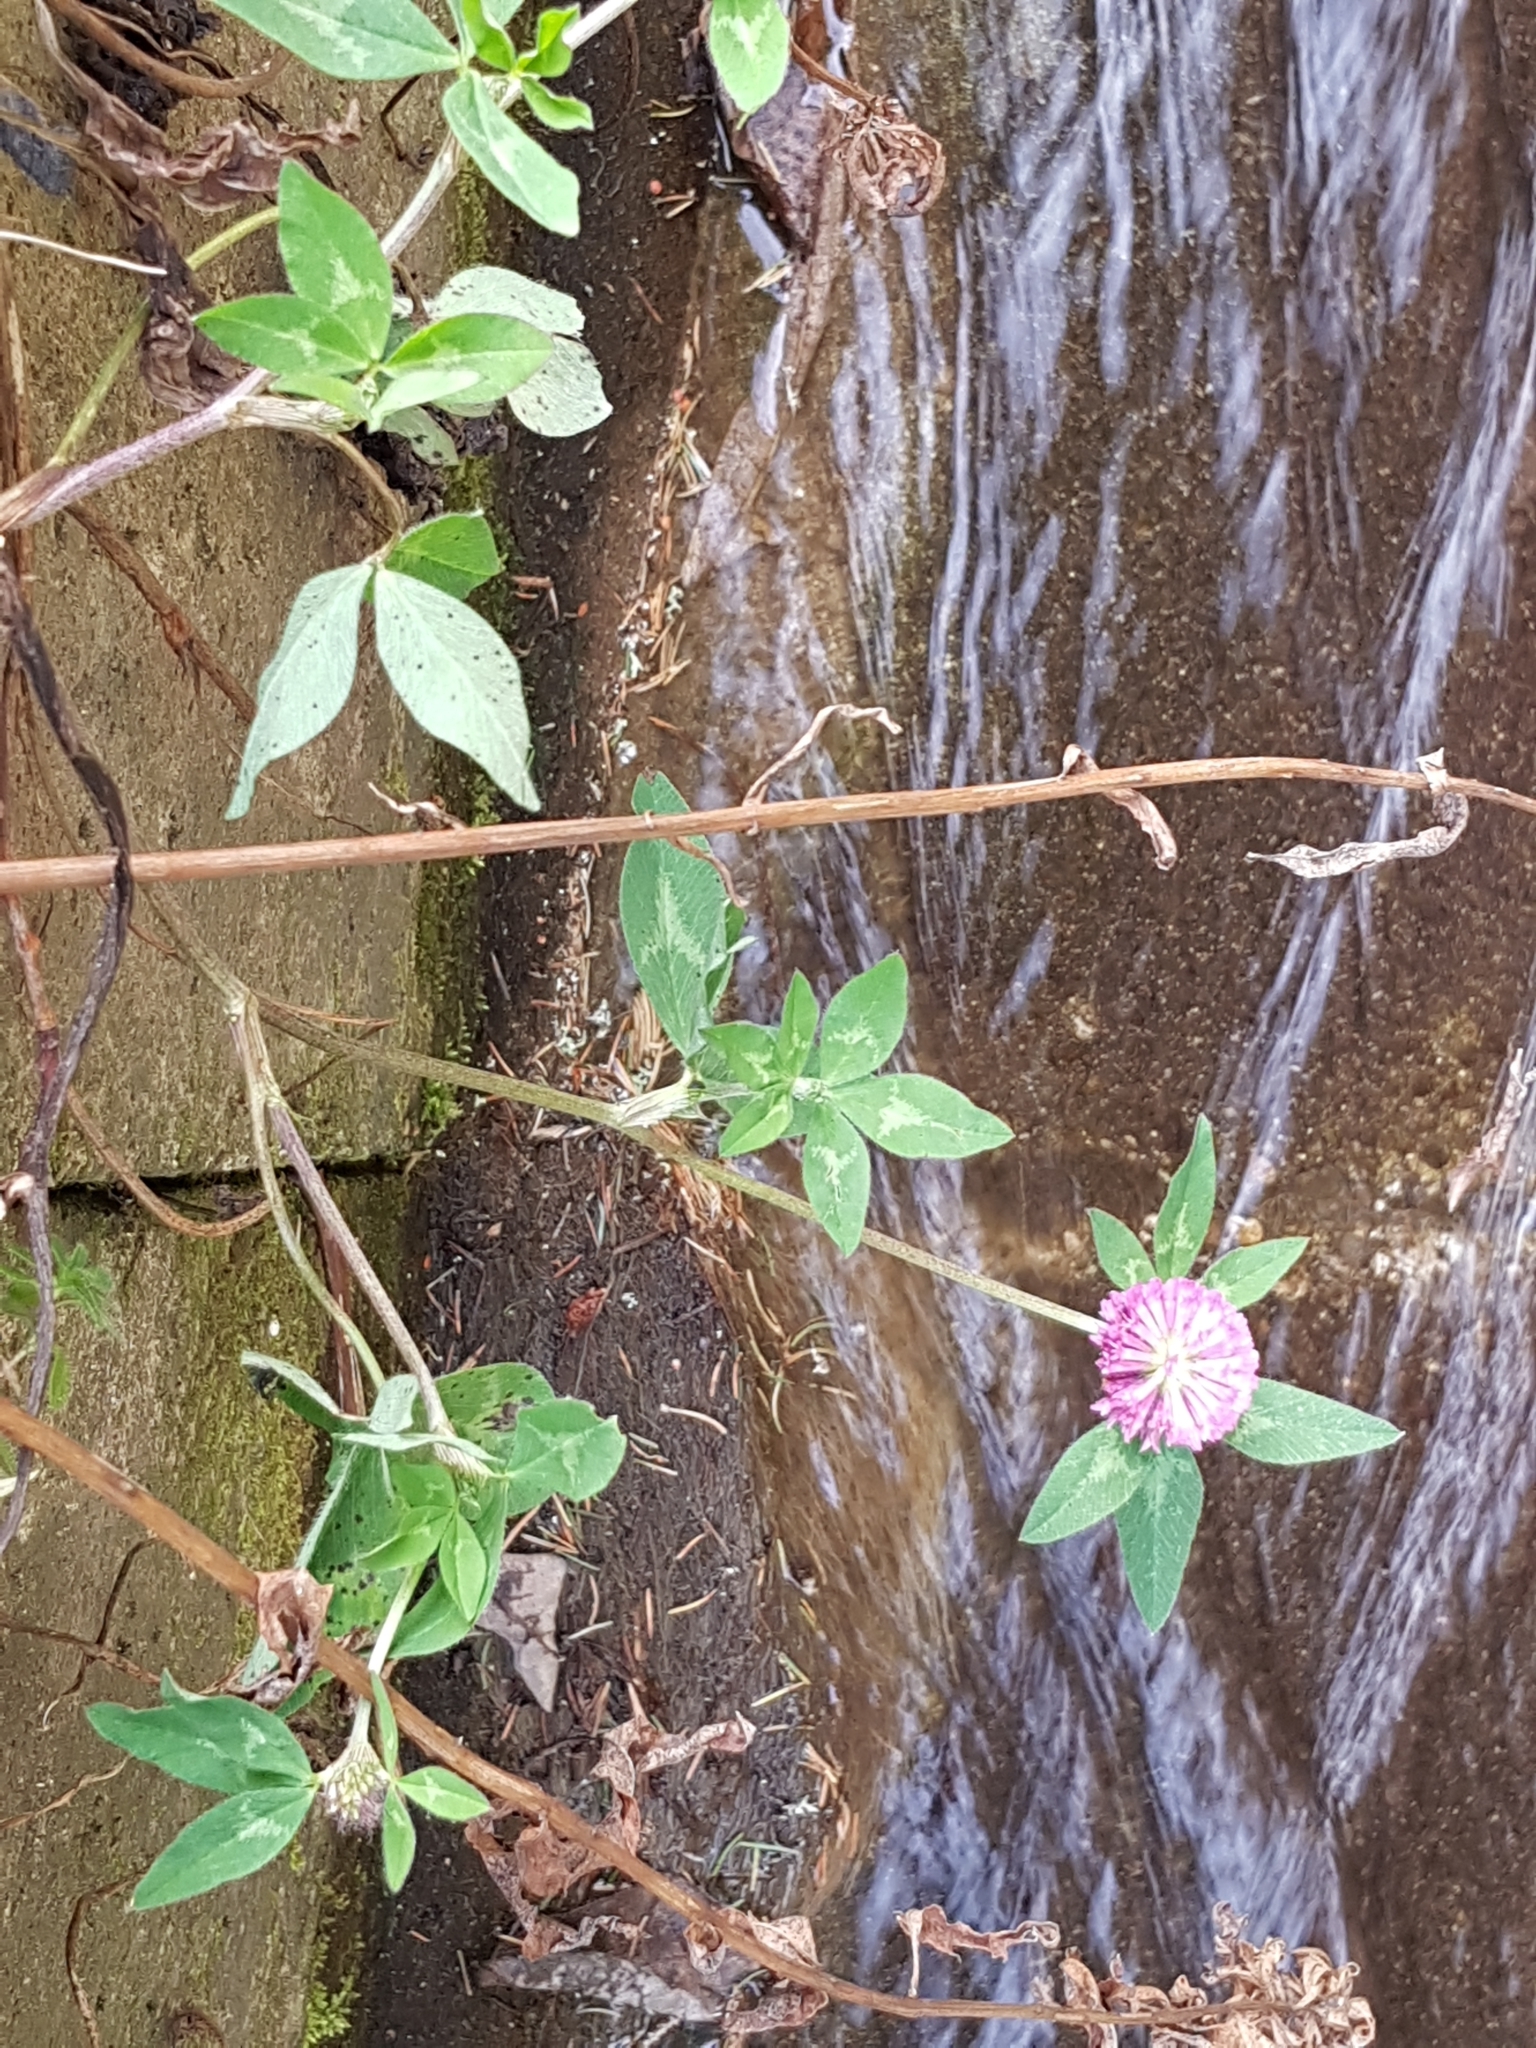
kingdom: Plantae
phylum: Tracheophyta
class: Magnoliopsida
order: Fabales
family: Fabaceae
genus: Trifolium
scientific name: Trifolium pratense
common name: Red clover
